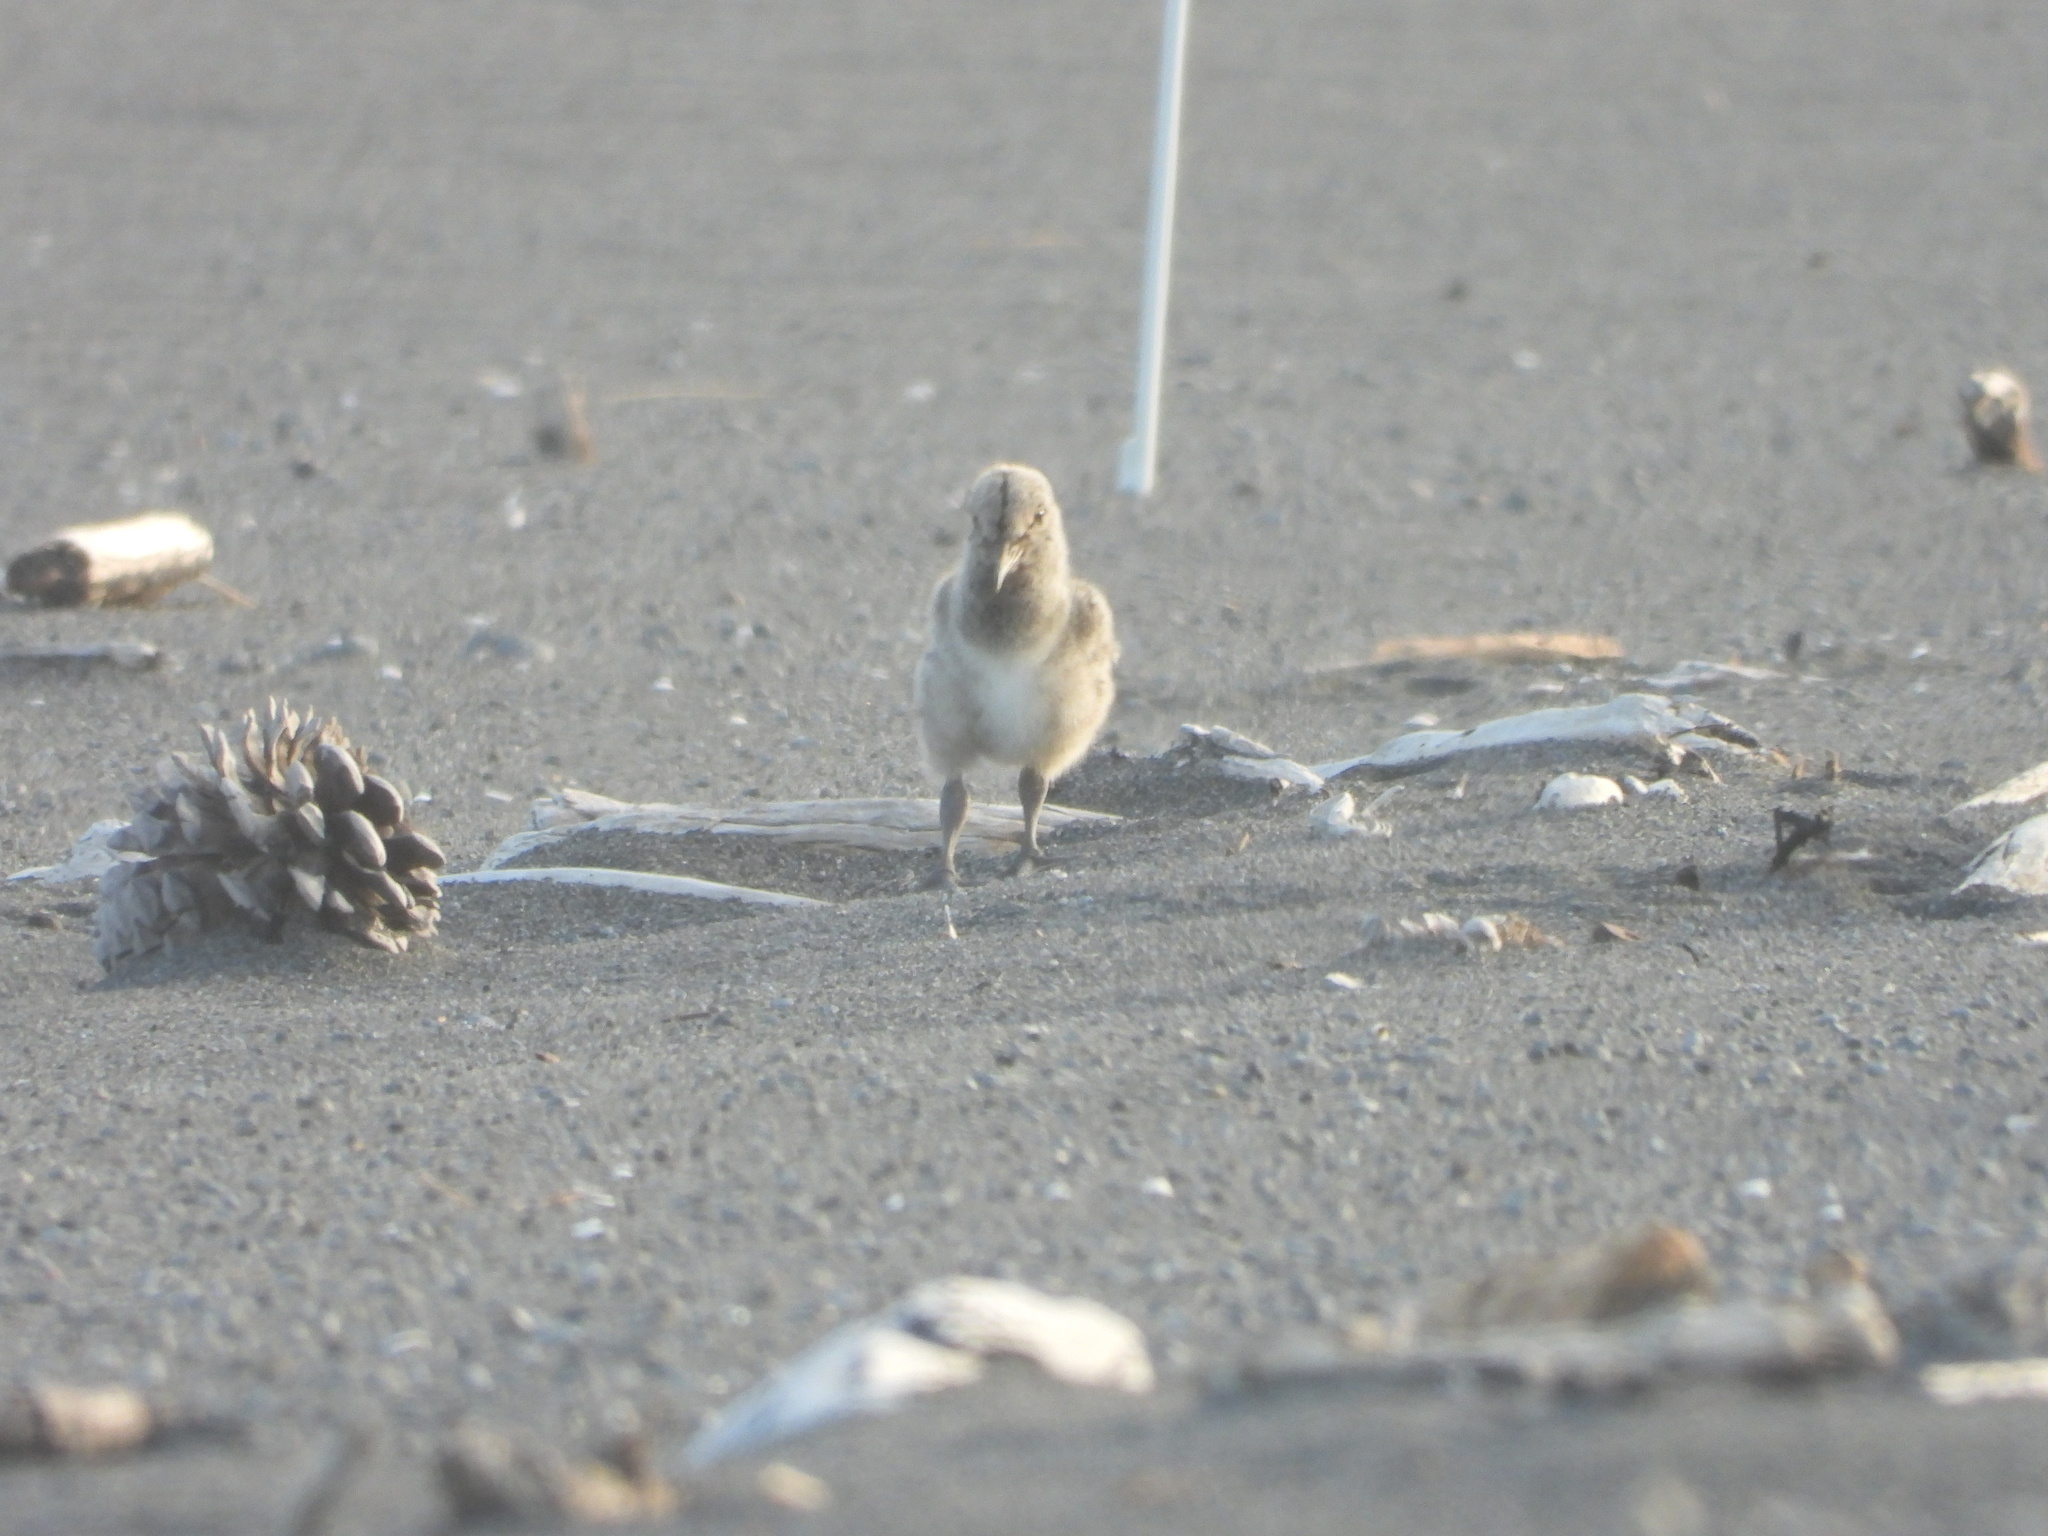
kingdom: Animalia
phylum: Chordata
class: Aves
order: Charadriiformes
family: Haematopodidae
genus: Haematopus
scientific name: Haematopus unicolor
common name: Variable oystercatcher
